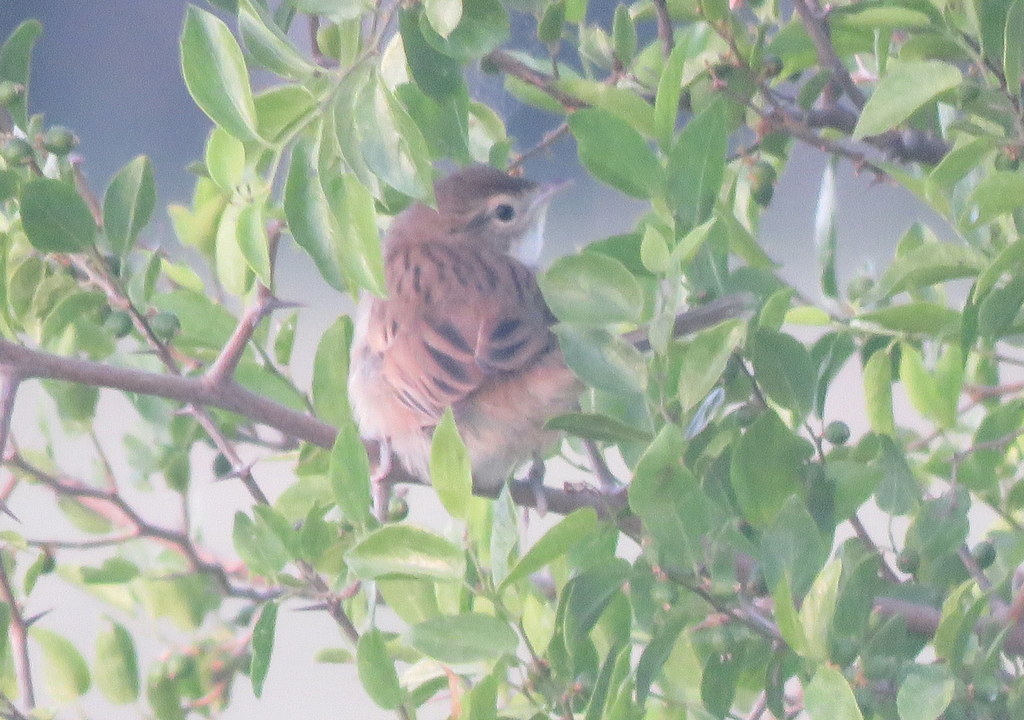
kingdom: Animalia
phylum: Chordata
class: Aves
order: Passeriformes
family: Furnariidae
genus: Schoeniophylax
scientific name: Schoeniophylax phryganophilus
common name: Chotoy spinetail
